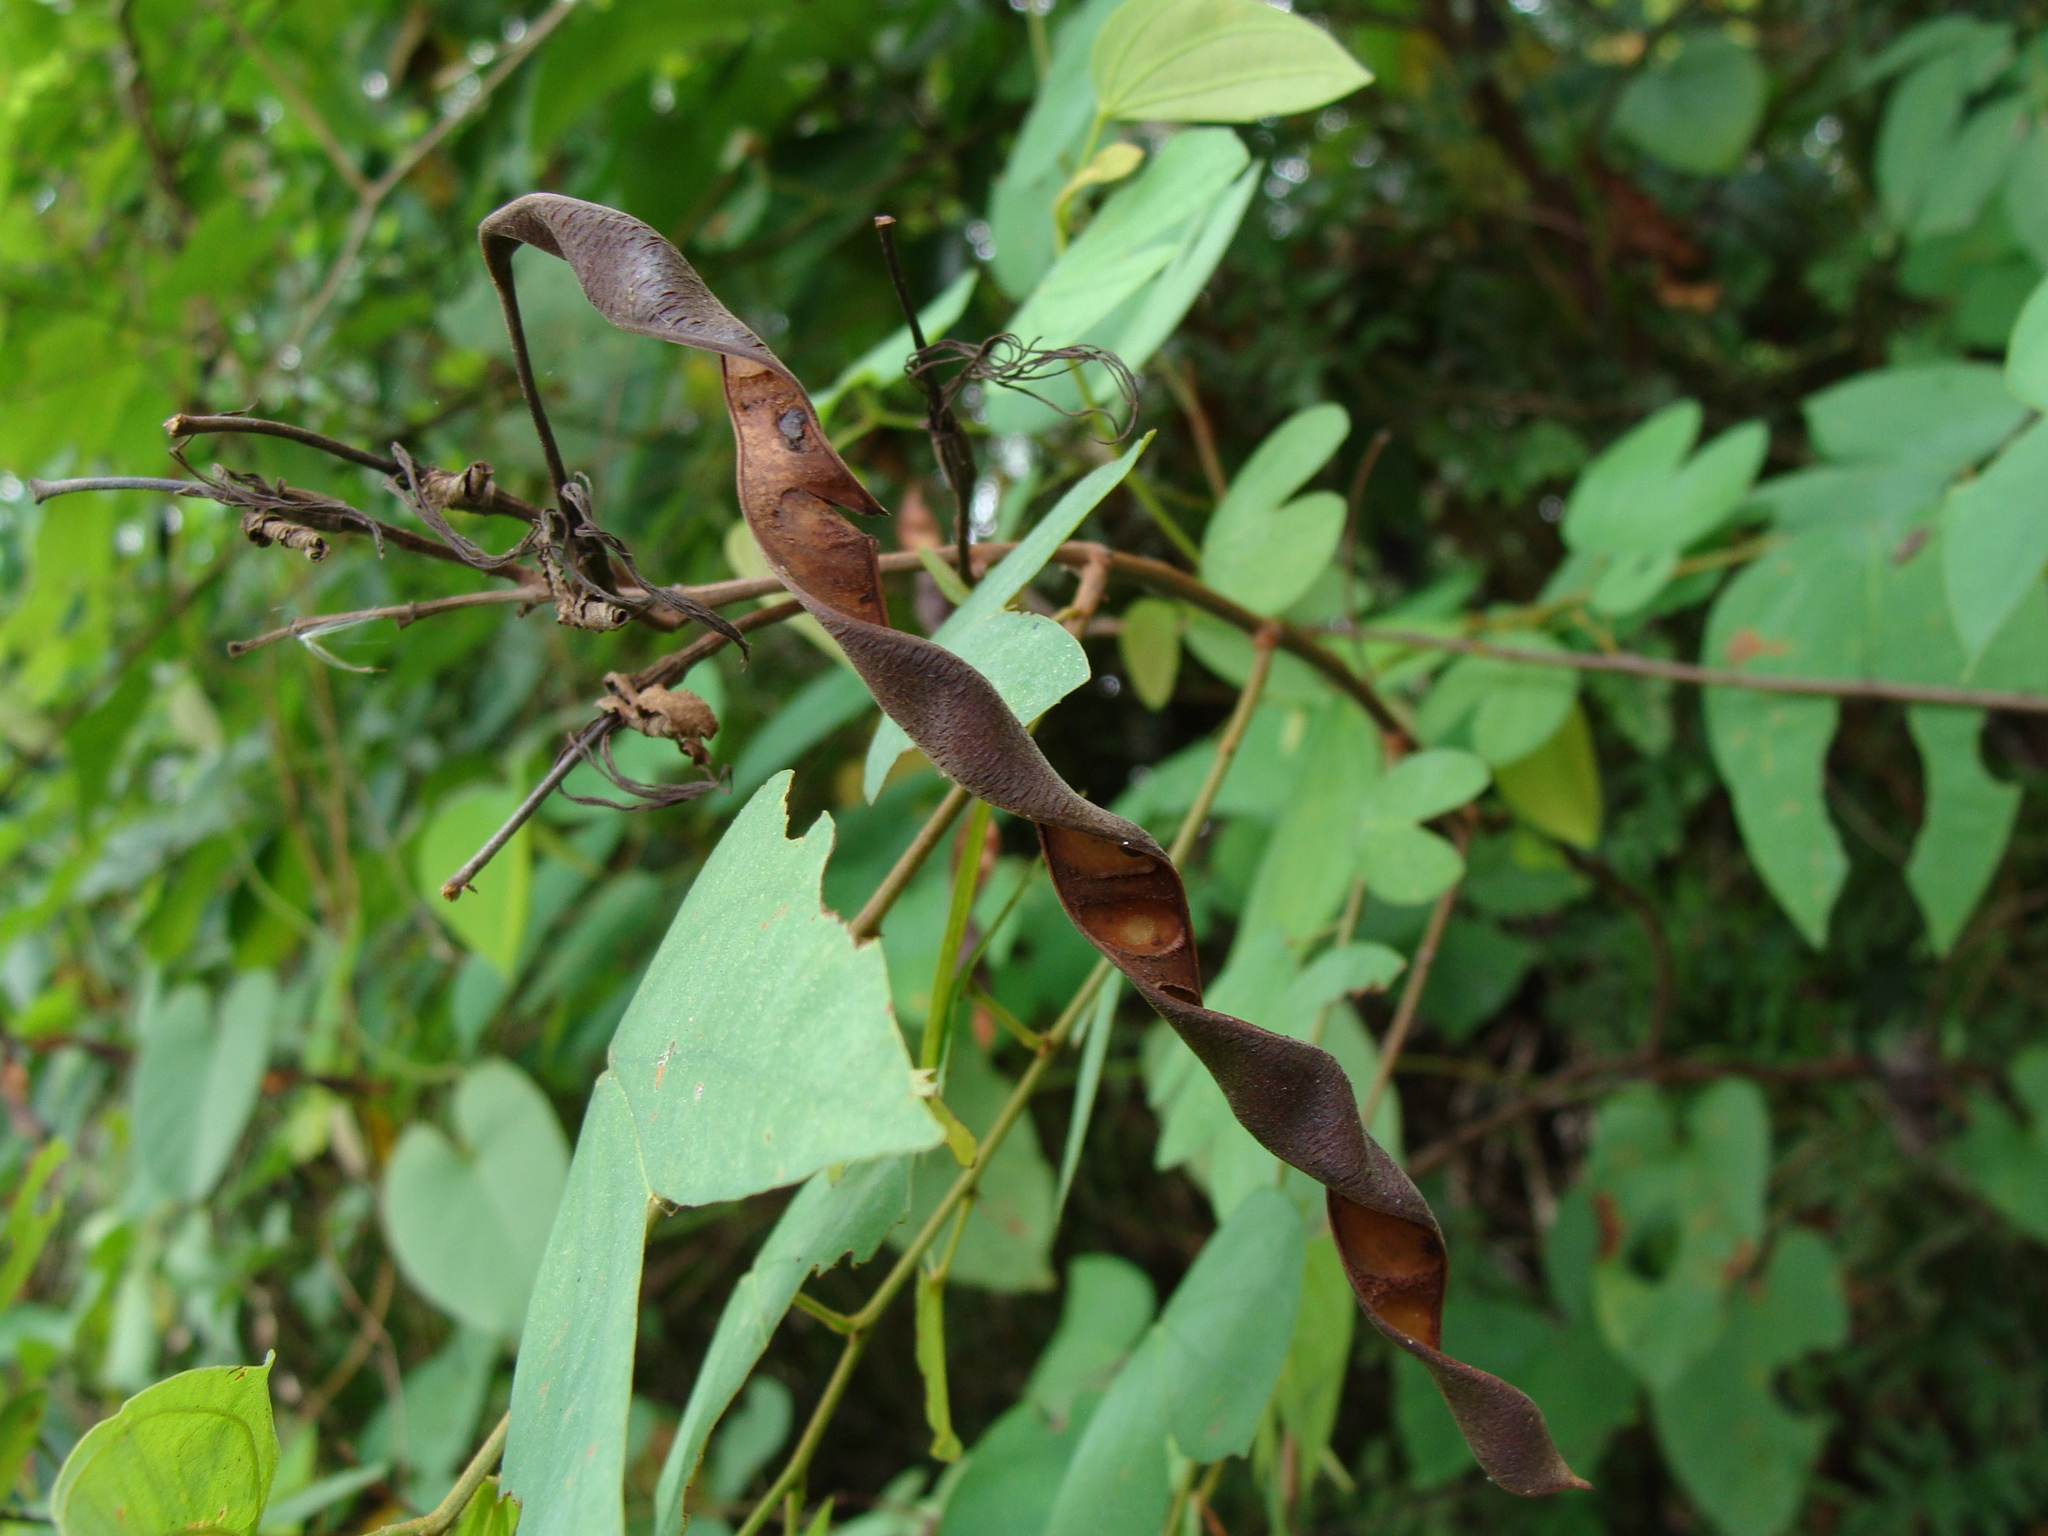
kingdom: Plantae
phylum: Tracheophyta
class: Magnoliopsida
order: Fabales
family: Fabaceae
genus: Bauhinia
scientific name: Bauhinia ungulata
